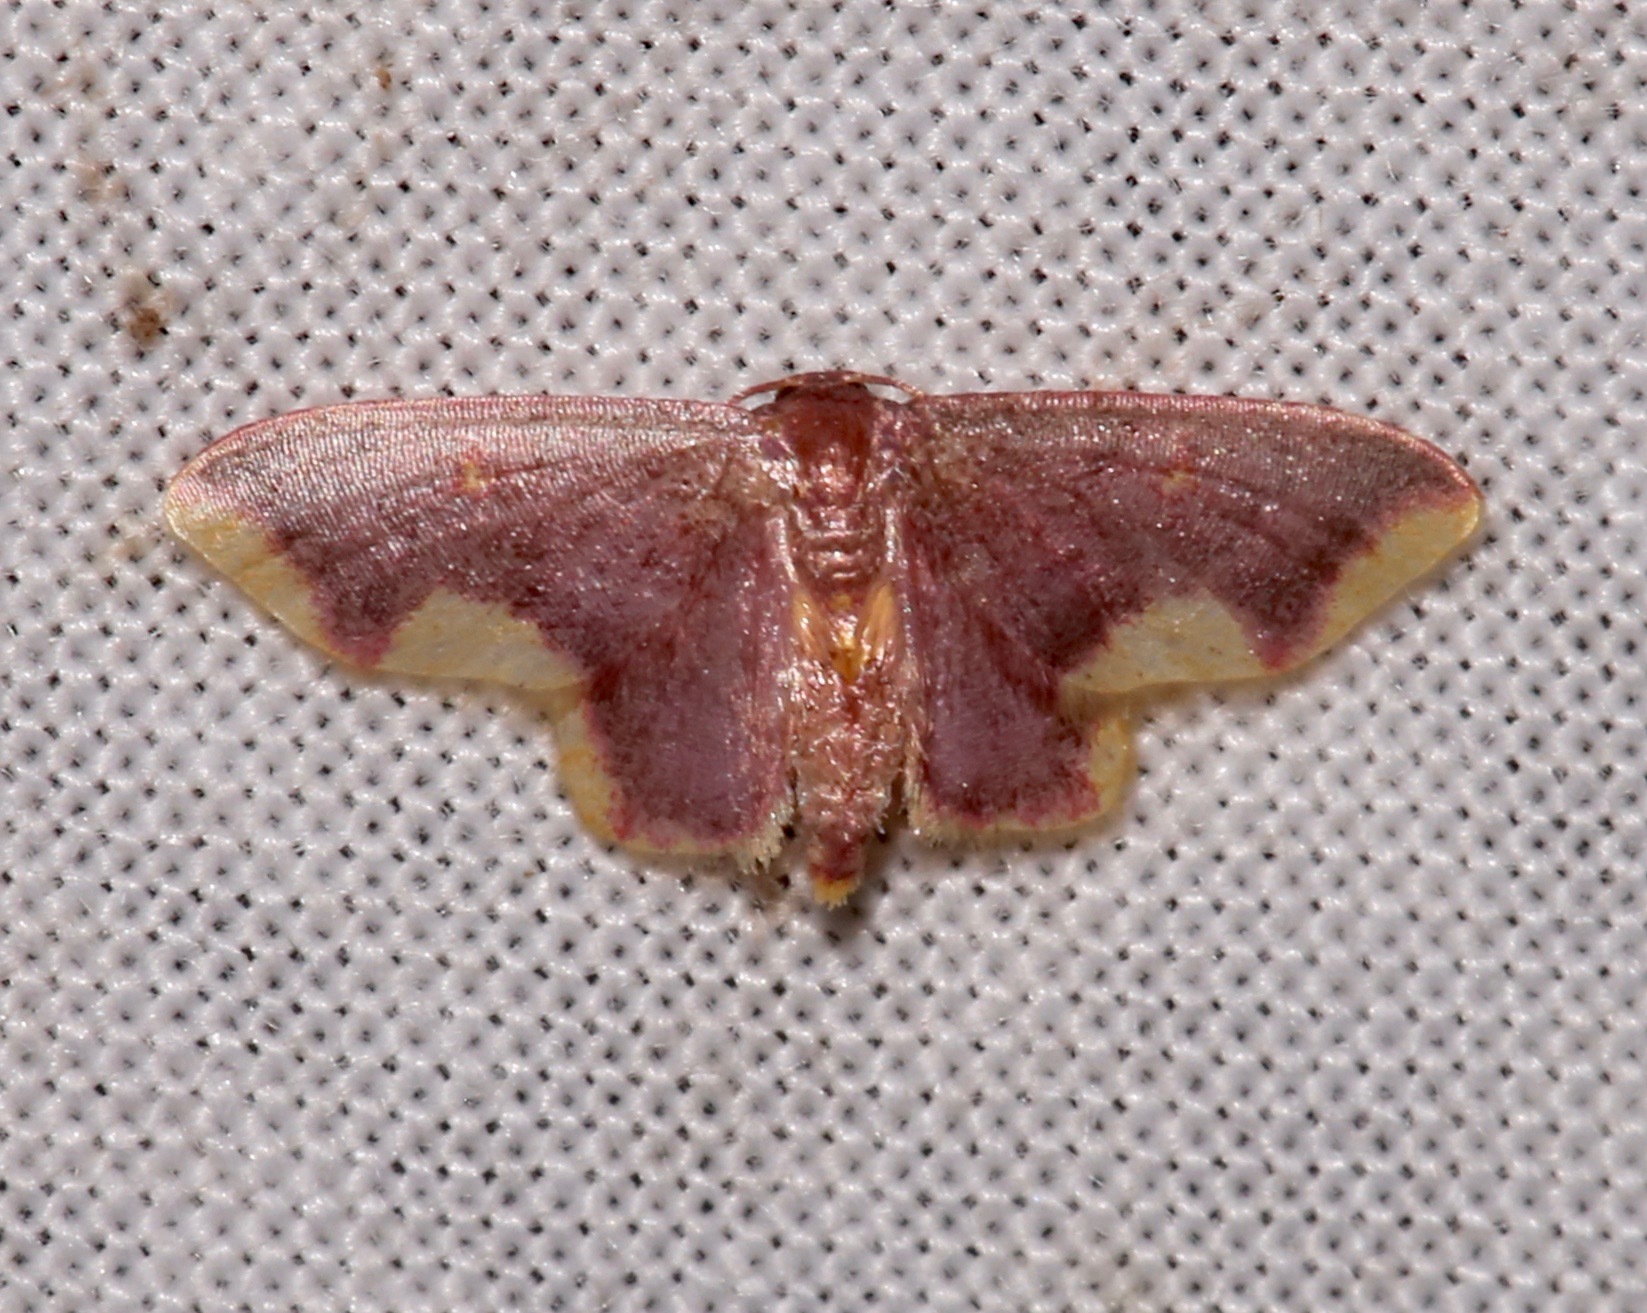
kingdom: Animalia
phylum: Arthropoda
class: Insecta
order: Lepidoptera
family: Geometridae
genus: Lophosis
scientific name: Lophosis labeculata
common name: Stained lophosis moth
